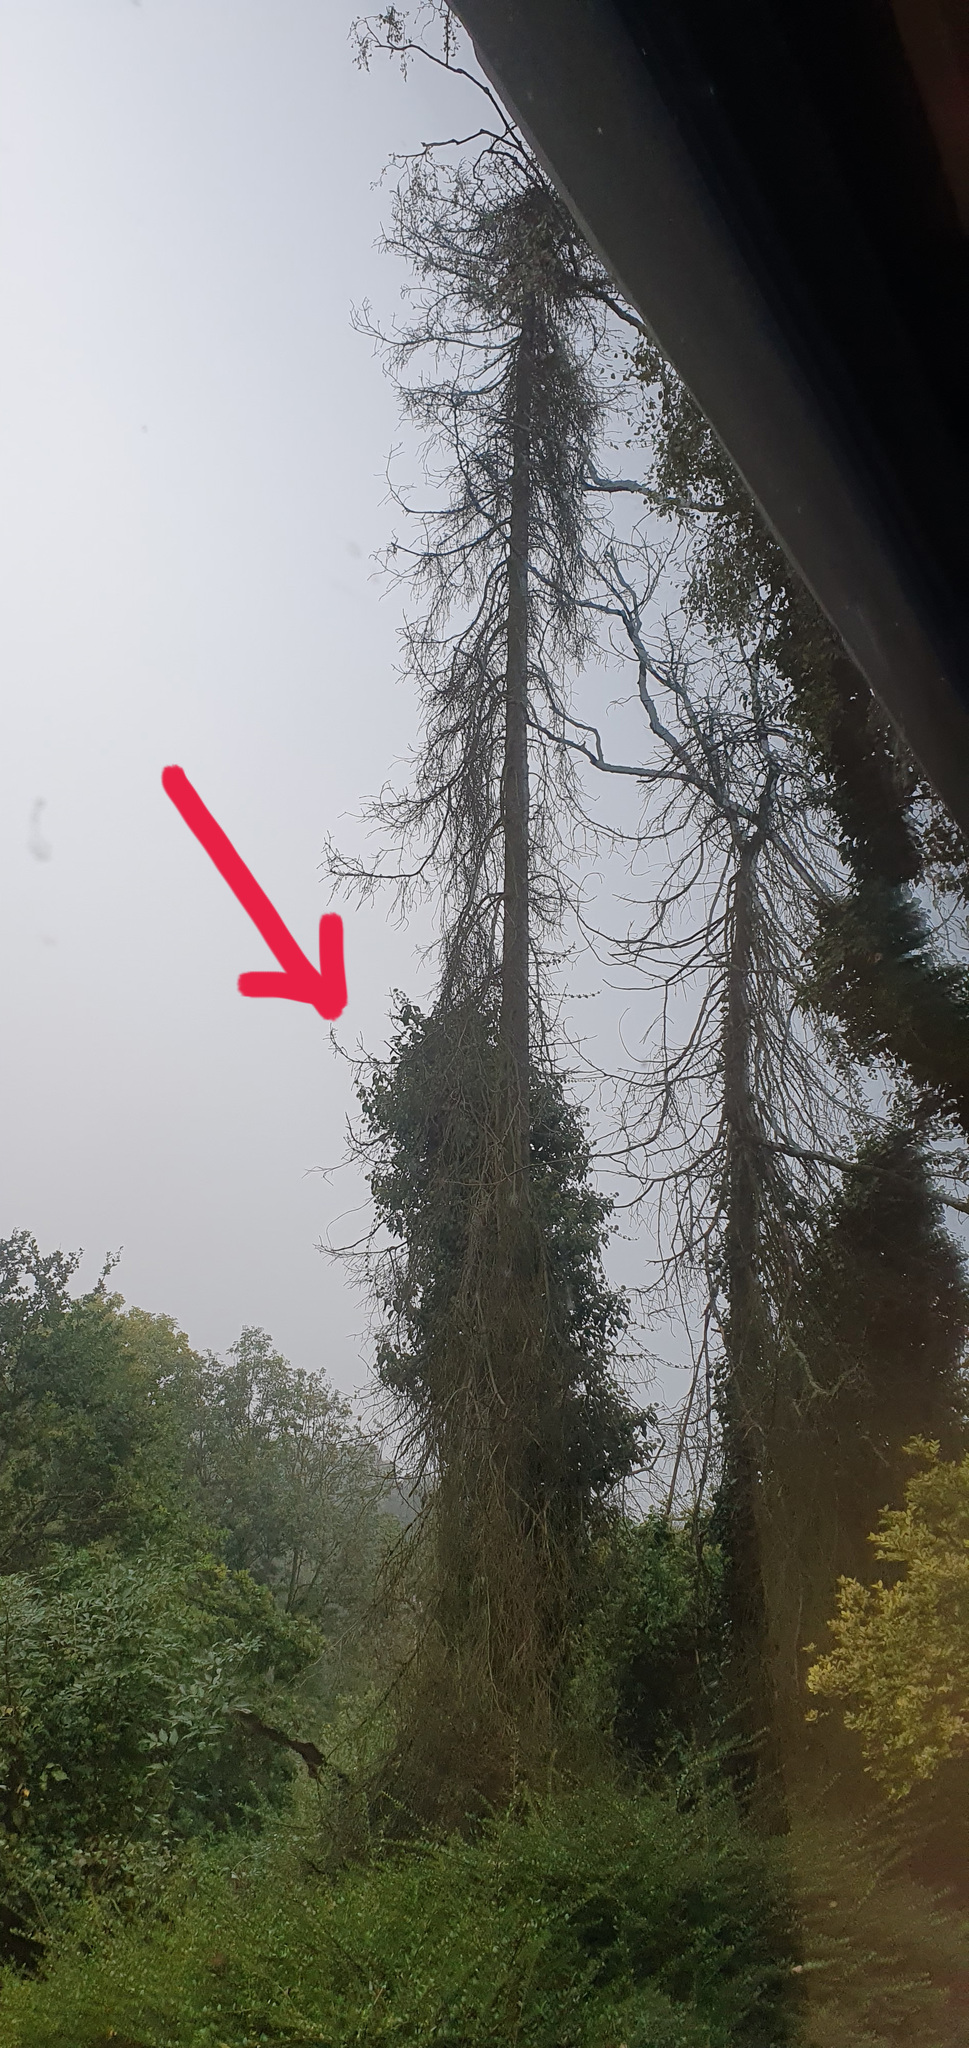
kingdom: Animalia
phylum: Arthropoda
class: Insecta
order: Hymenoptera
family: Vespidae
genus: Vespa
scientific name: Vespa crabro
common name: Hornet
